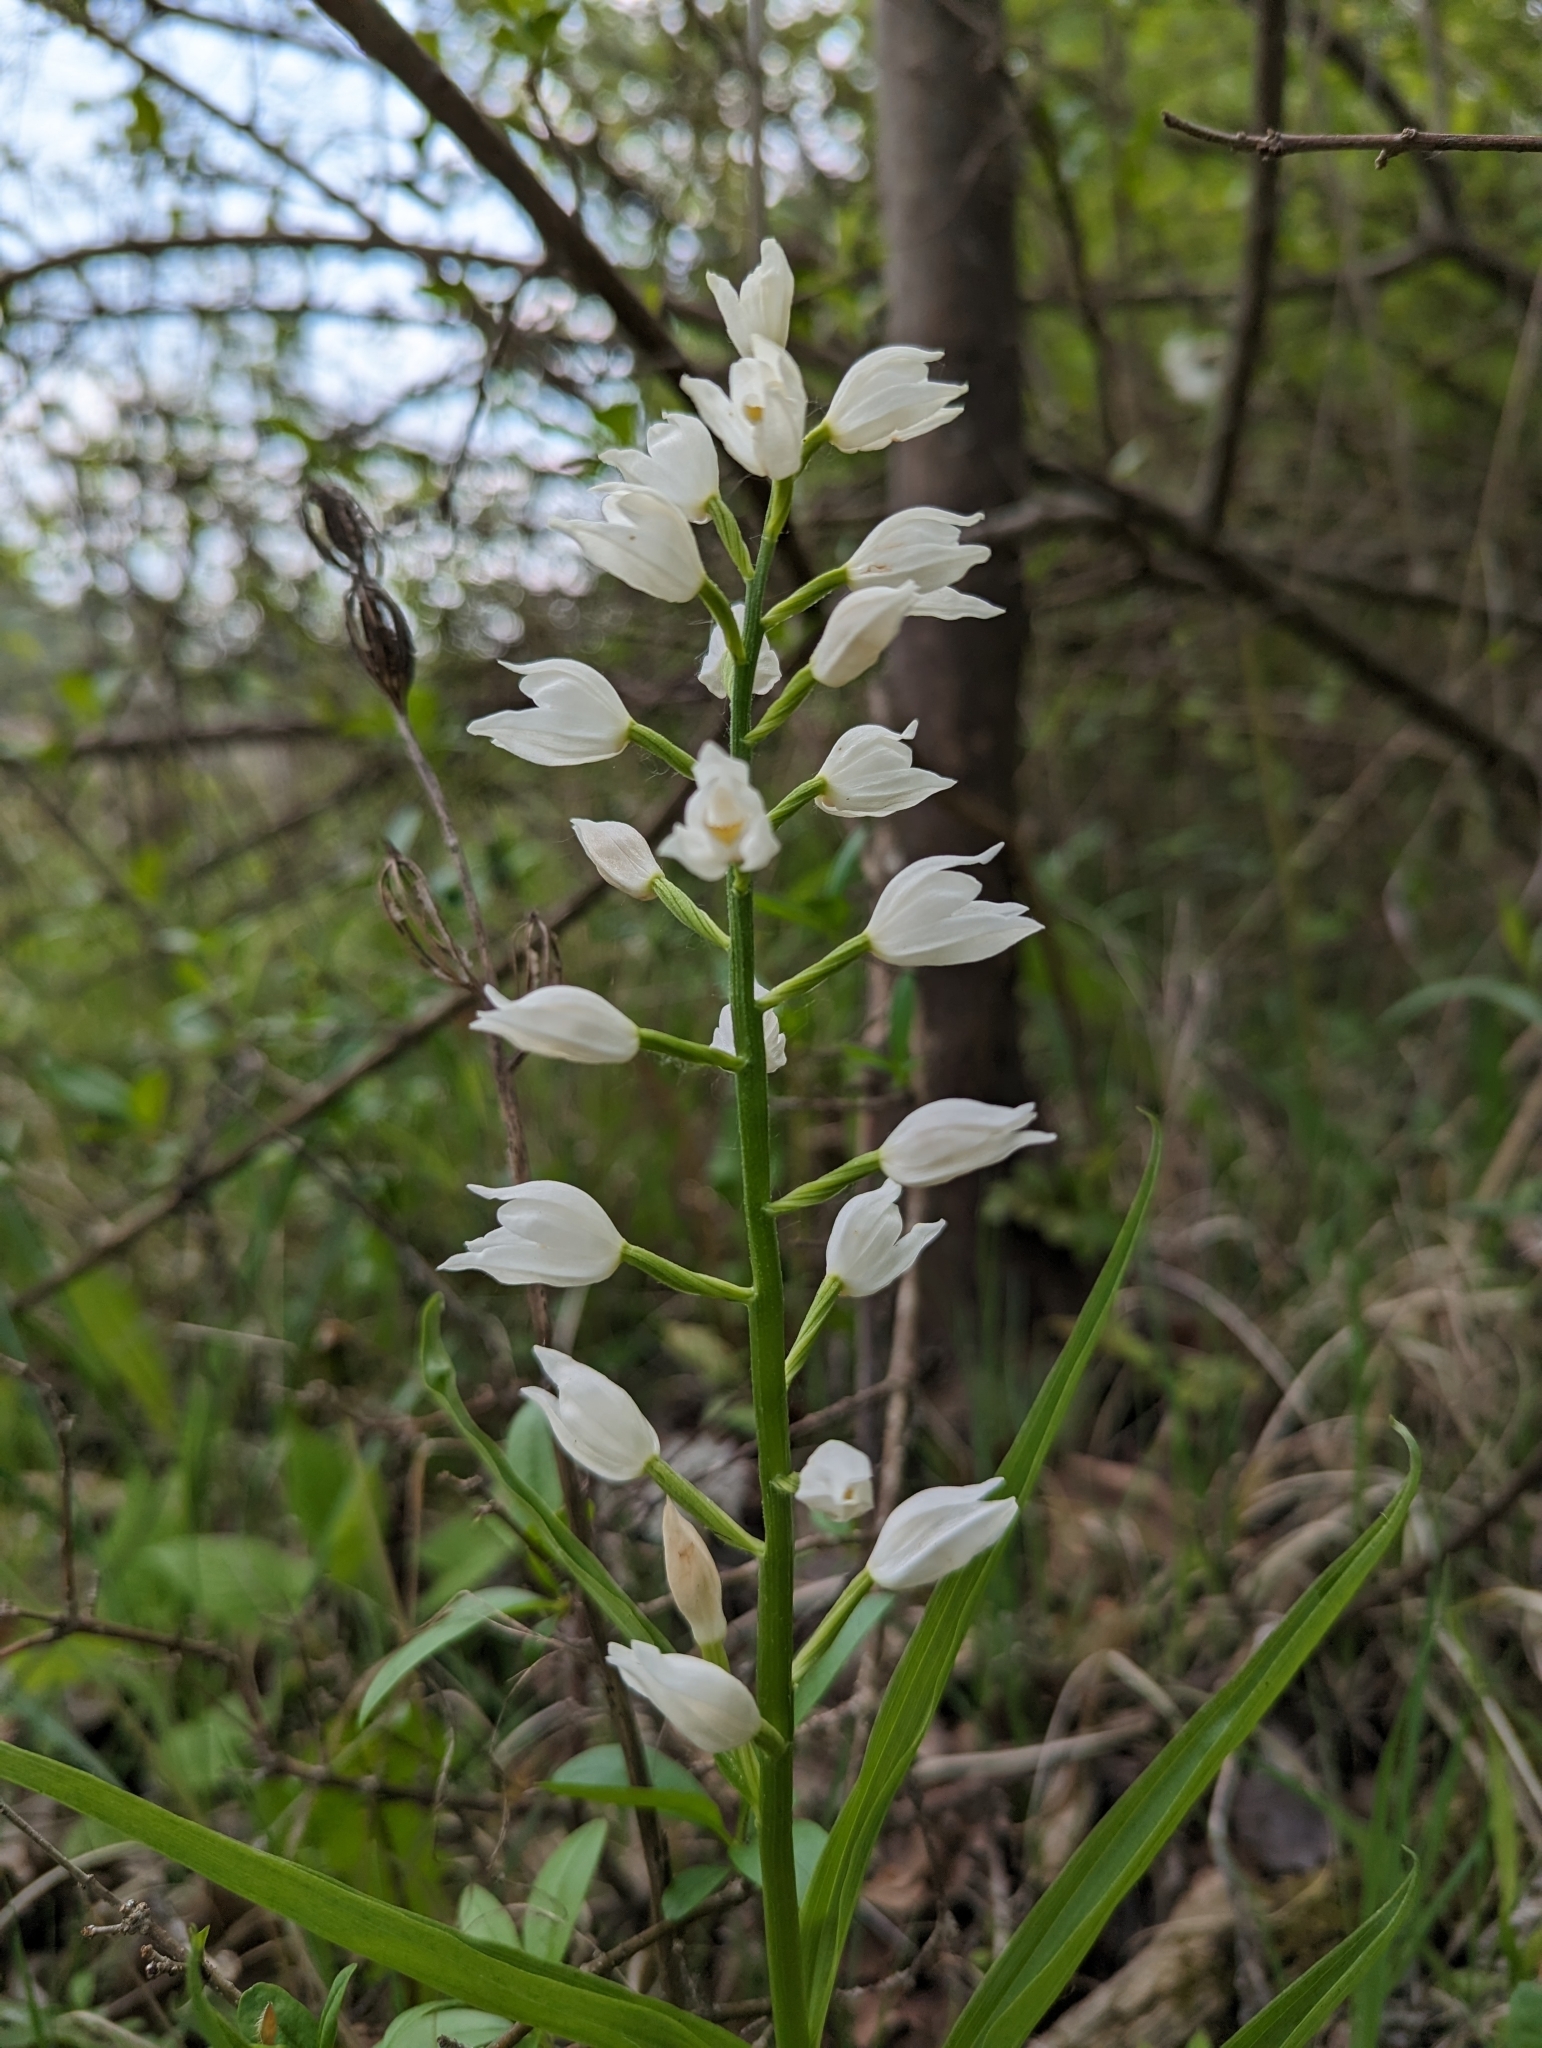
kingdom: Plantae
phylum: Tracheophyta
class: Liliopsida
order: Asparagales
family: Orchidaceae
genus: Cephalanthera
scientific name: Cephalanthera longifolia
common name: Narrow-leaved helleborine
